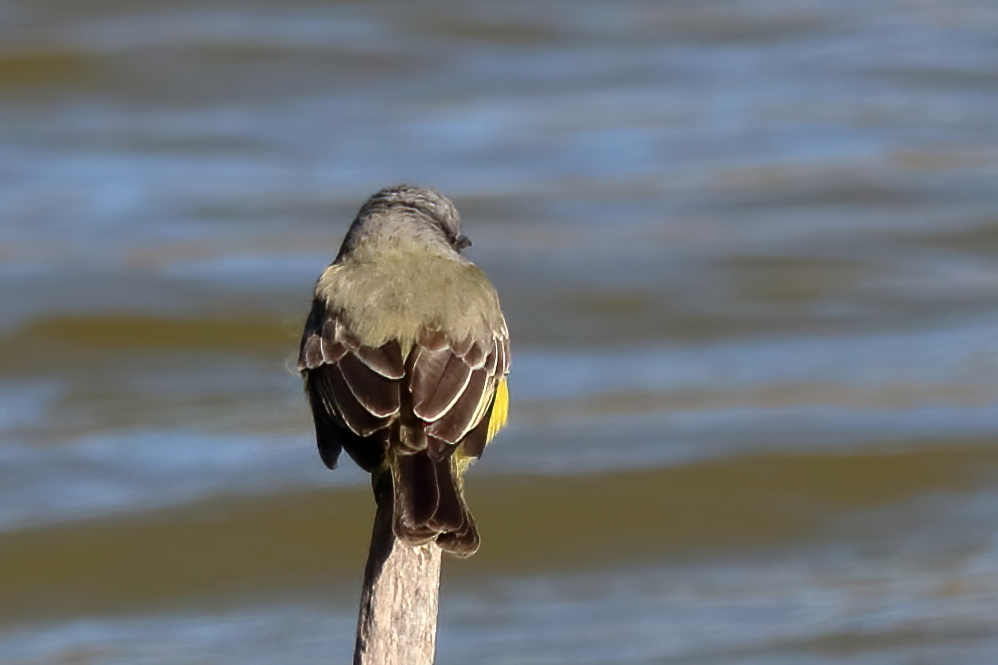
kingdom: Animalia
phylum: Chordata
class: Aves
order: Passeriformes
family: Tyrannidae
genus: Tyrannus
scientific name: Tyrannus couchii
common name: Couch's kingbird
